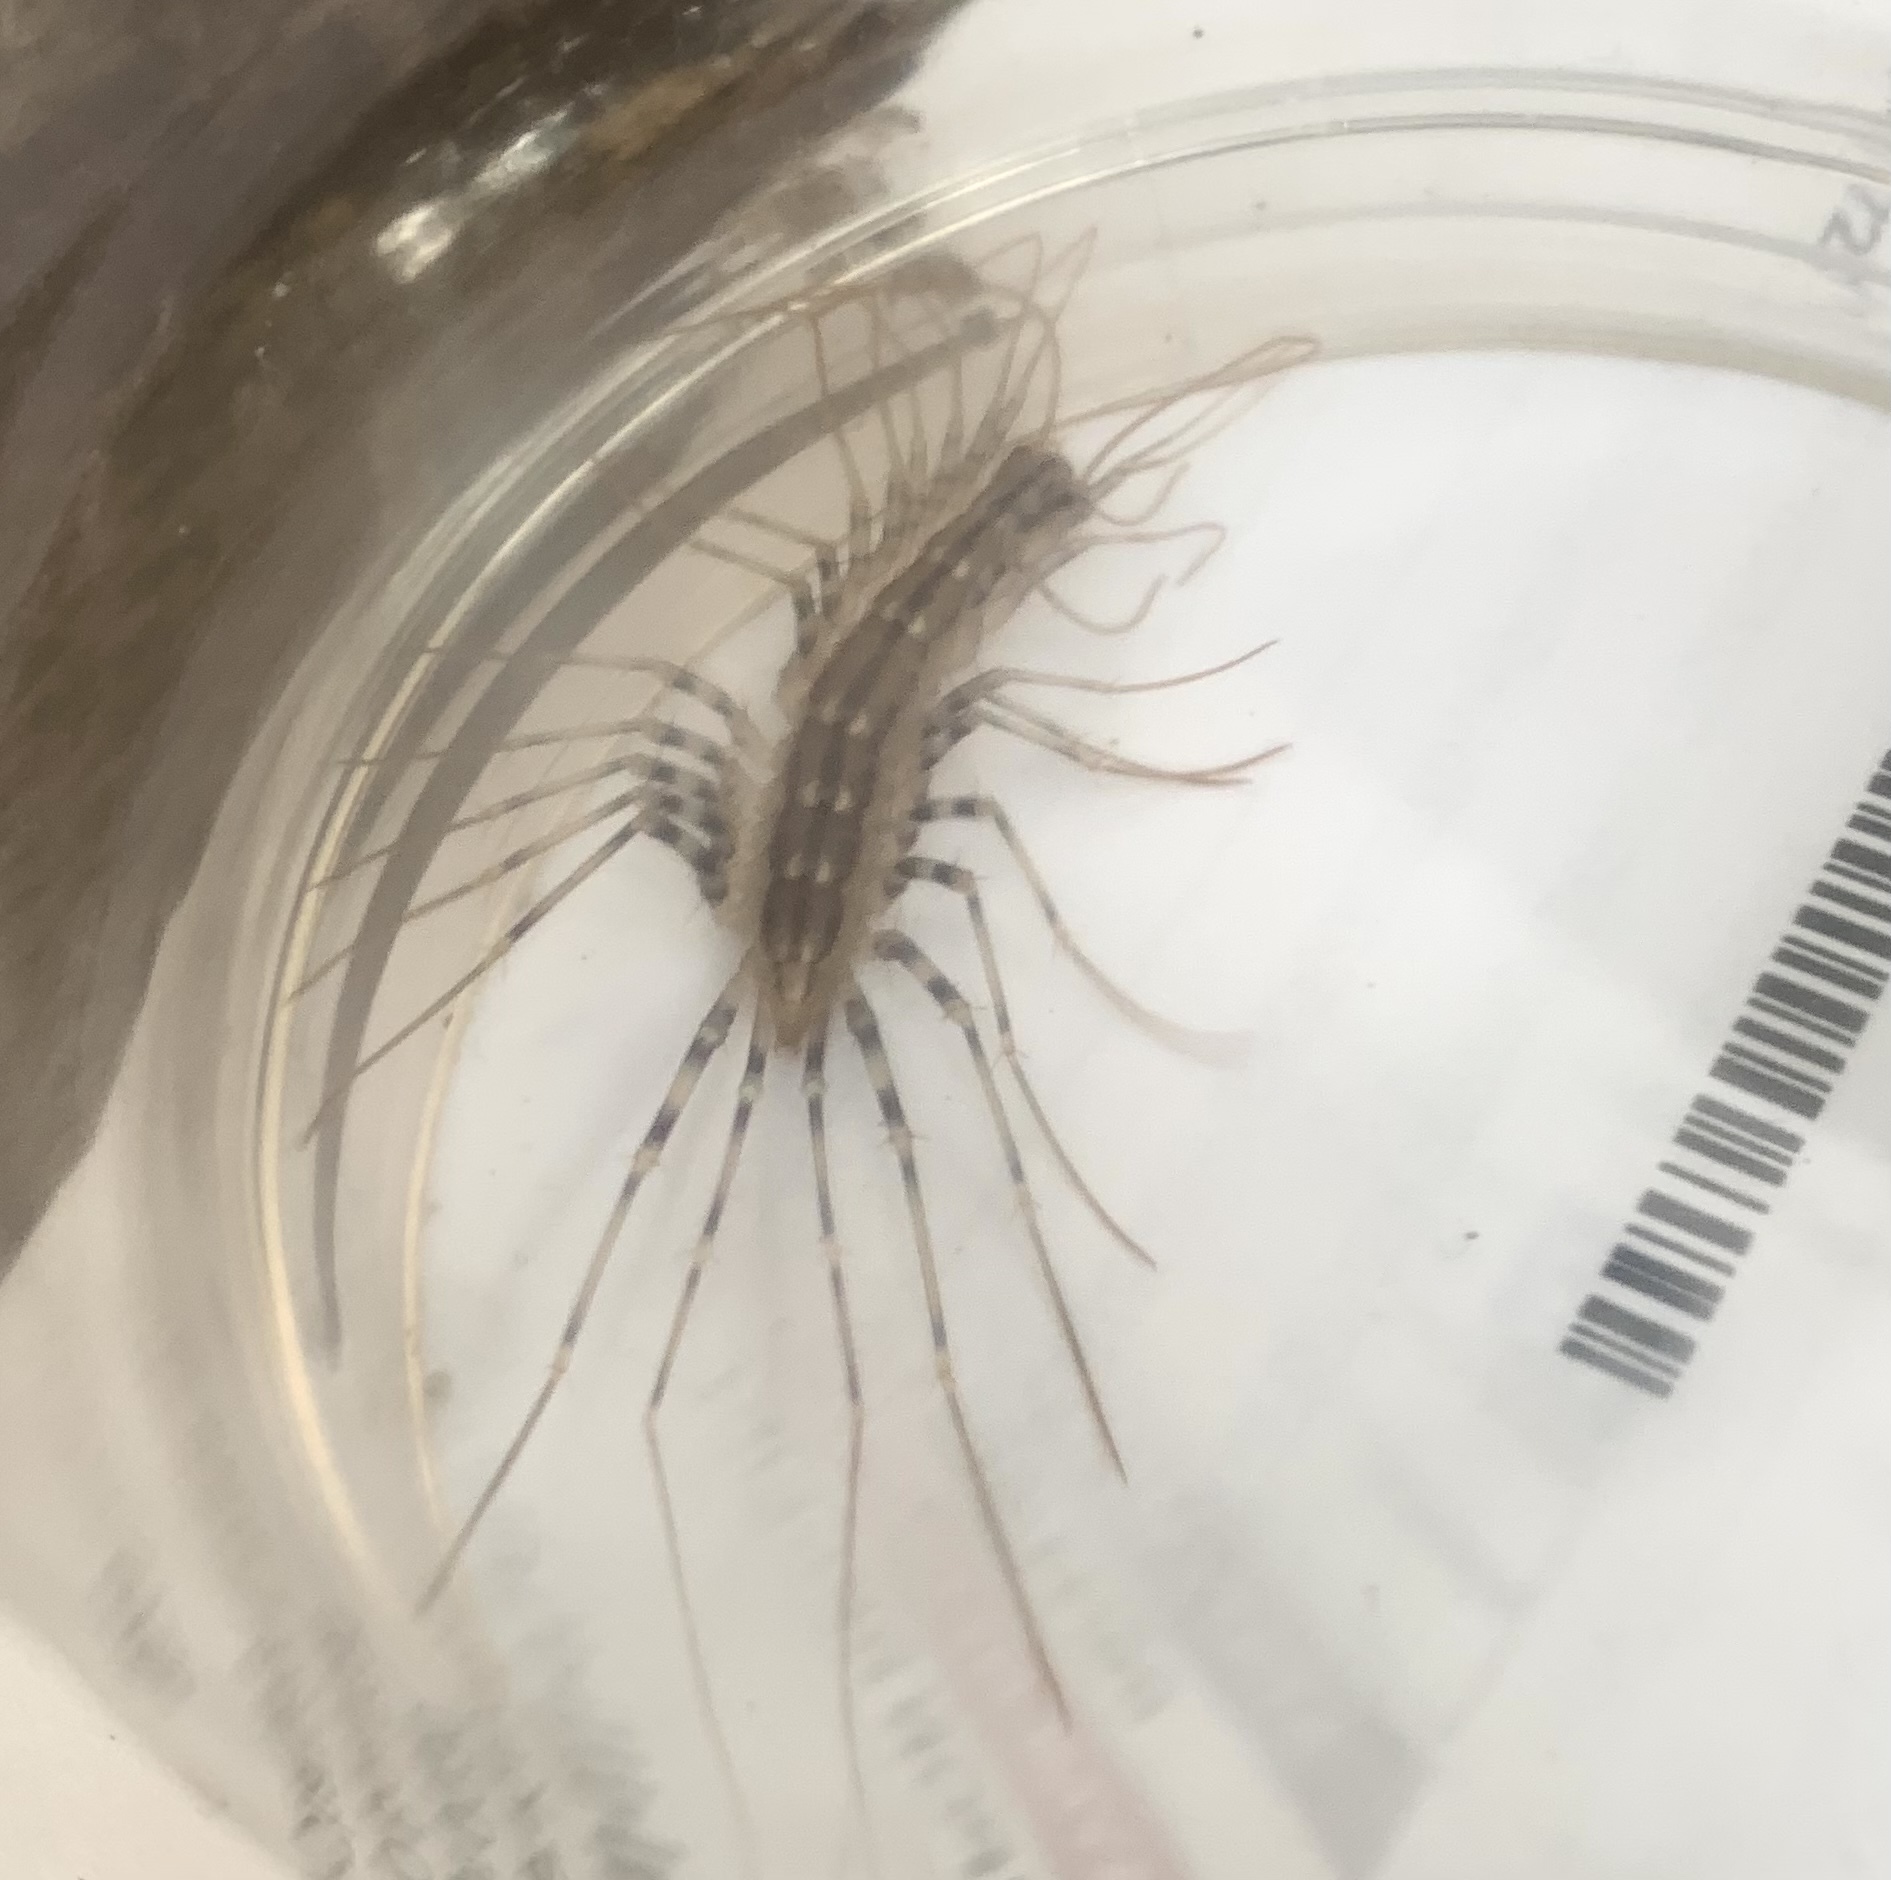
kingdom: Animalia
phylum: Arthropoda
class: Chilopoda
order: Scutigeromorpha
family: Scutigeridae
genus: Scutigera
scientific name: Scutigera coleoptrata
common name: House centipede
